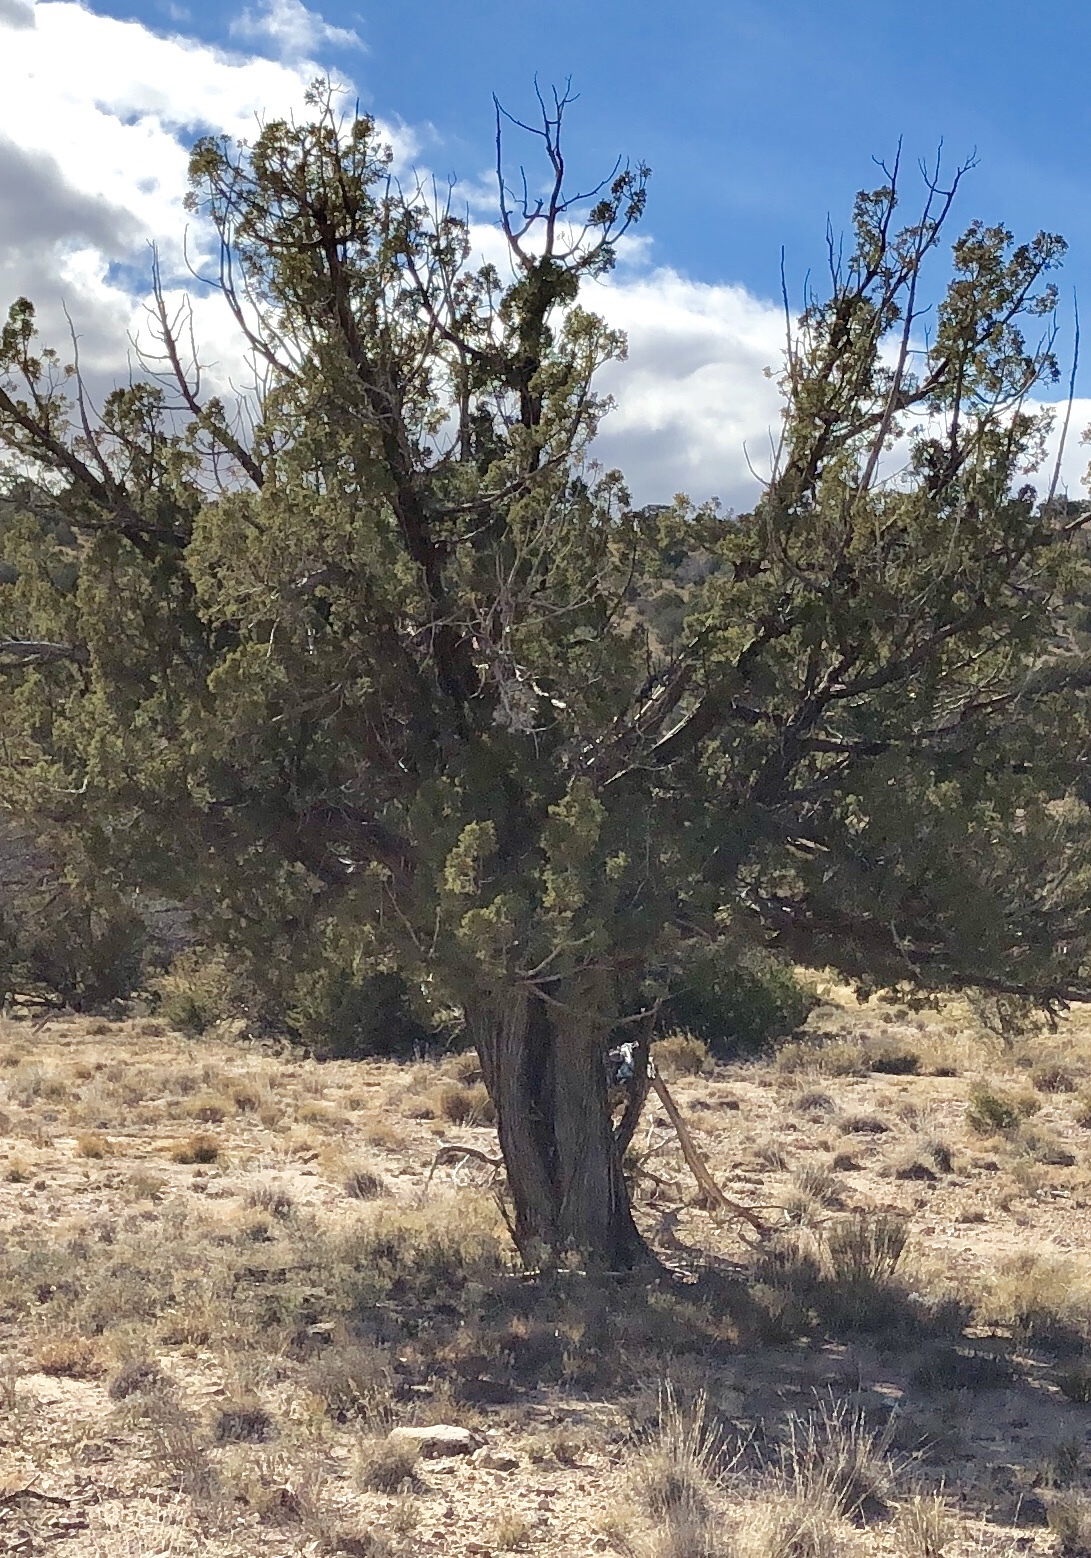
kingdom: Plantae
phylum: Tracheophyta
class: Pinopsida
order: Pinales
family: Cupressaceae
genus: Juniperus
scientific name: Juniperus monosperma
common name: One-seed juniper
